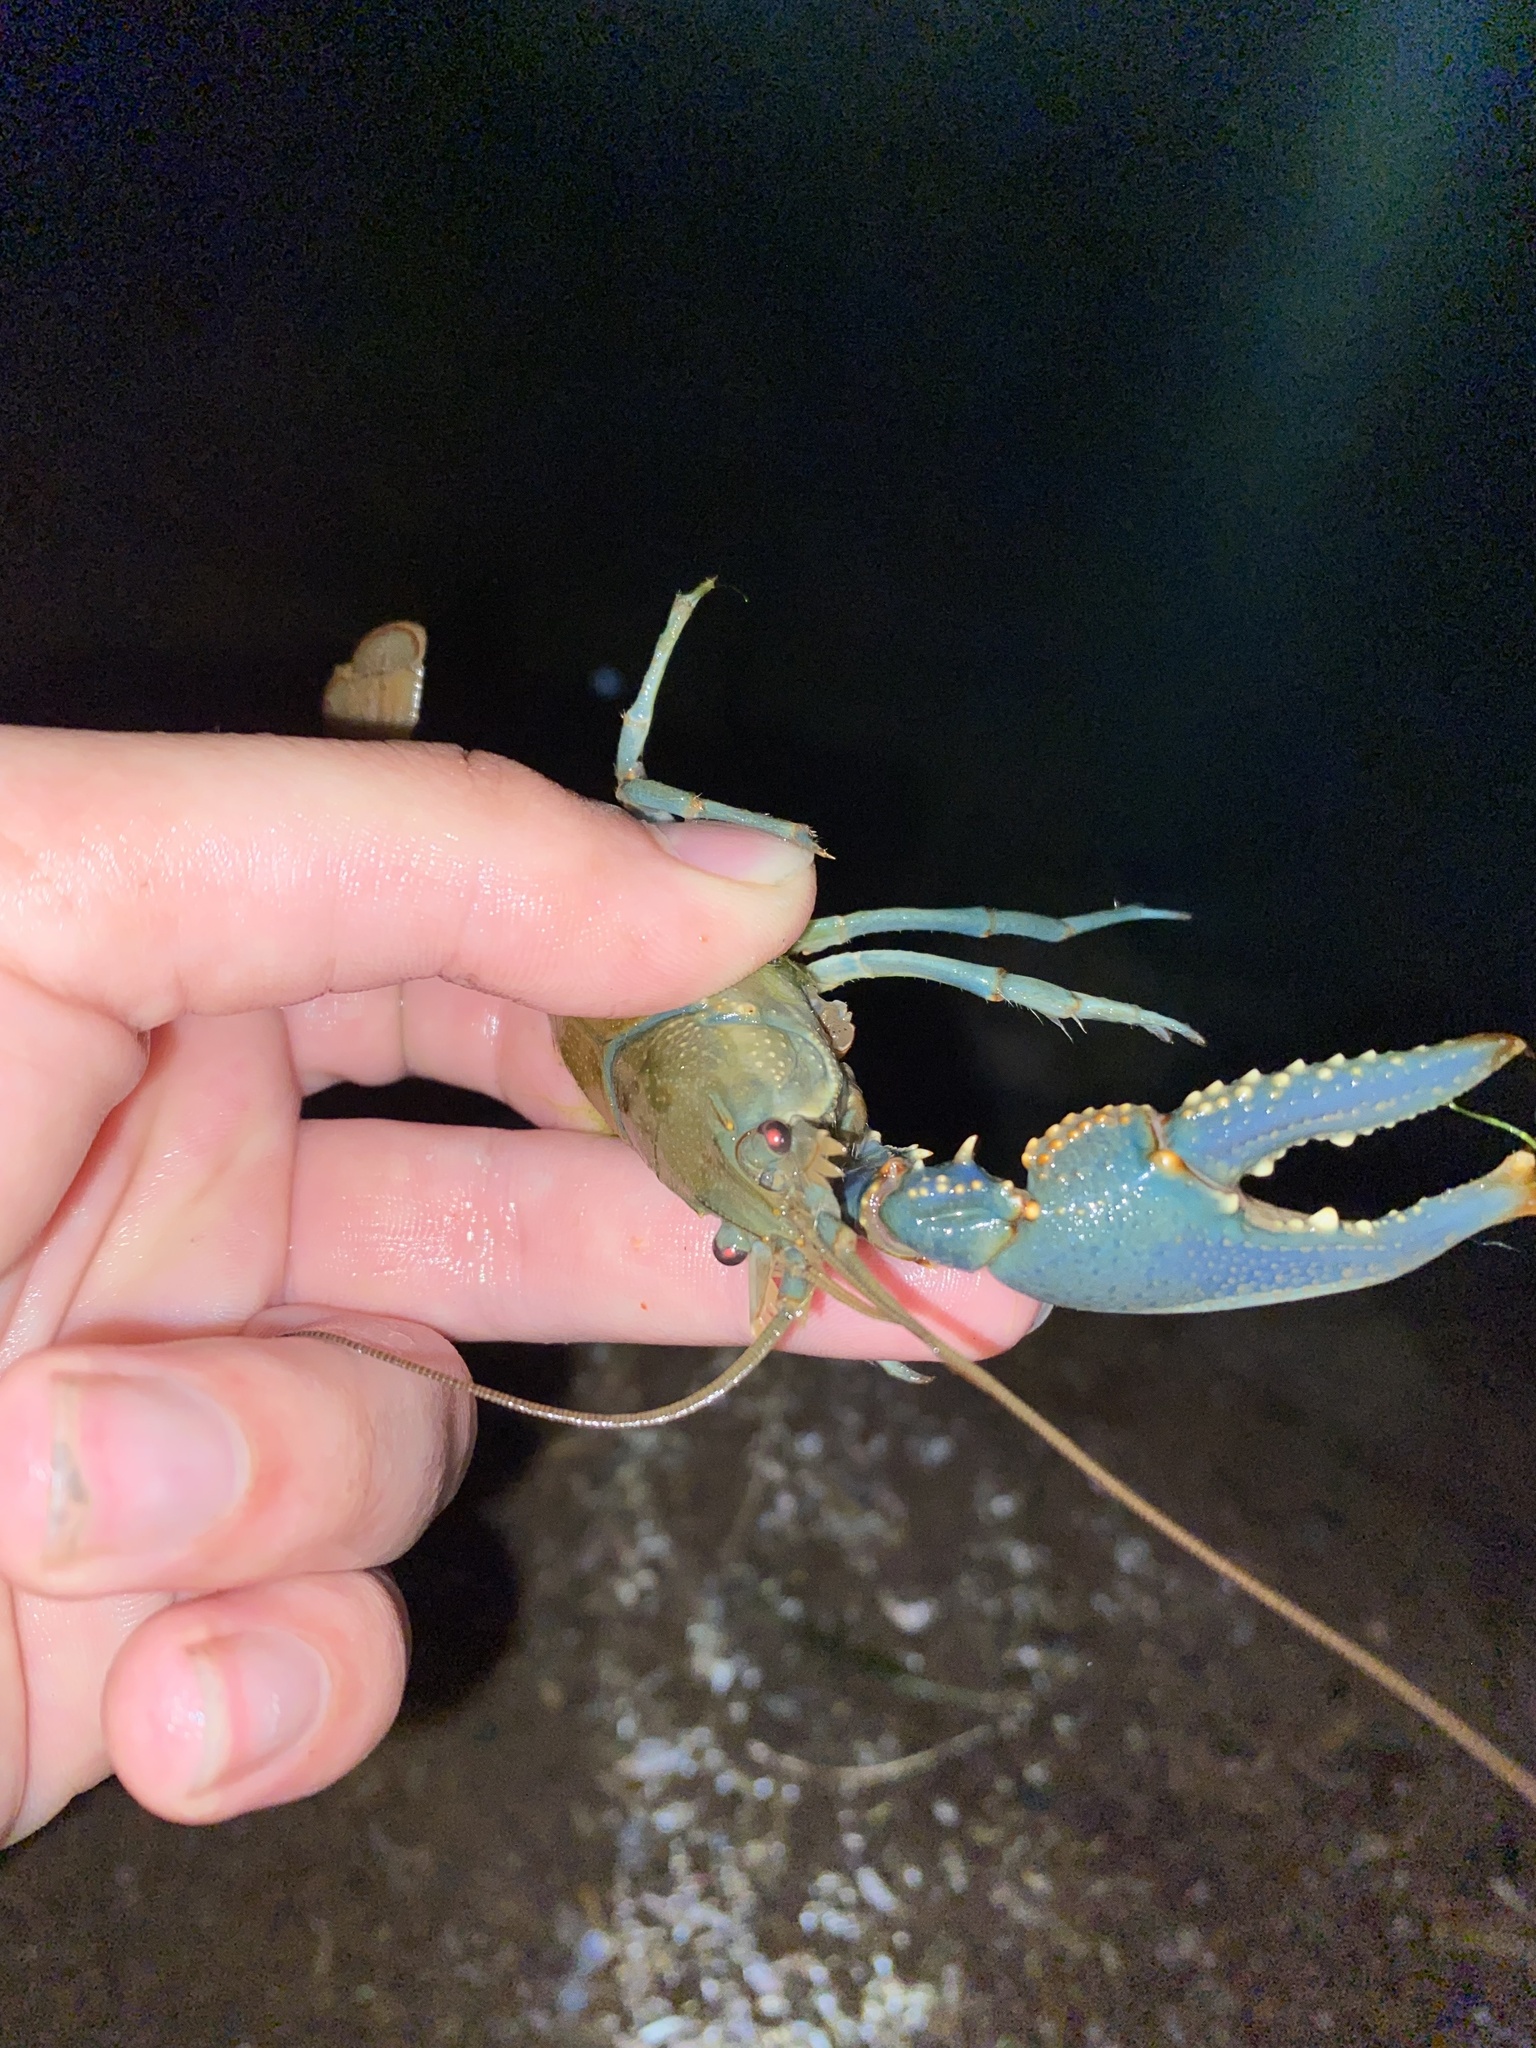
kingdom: Animalia
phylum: Arthropoda
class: Malacostraca
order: Decapoda
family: Cambaridae
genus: Faxonius
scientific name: Faxonius virilis
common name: Virile crayfish
